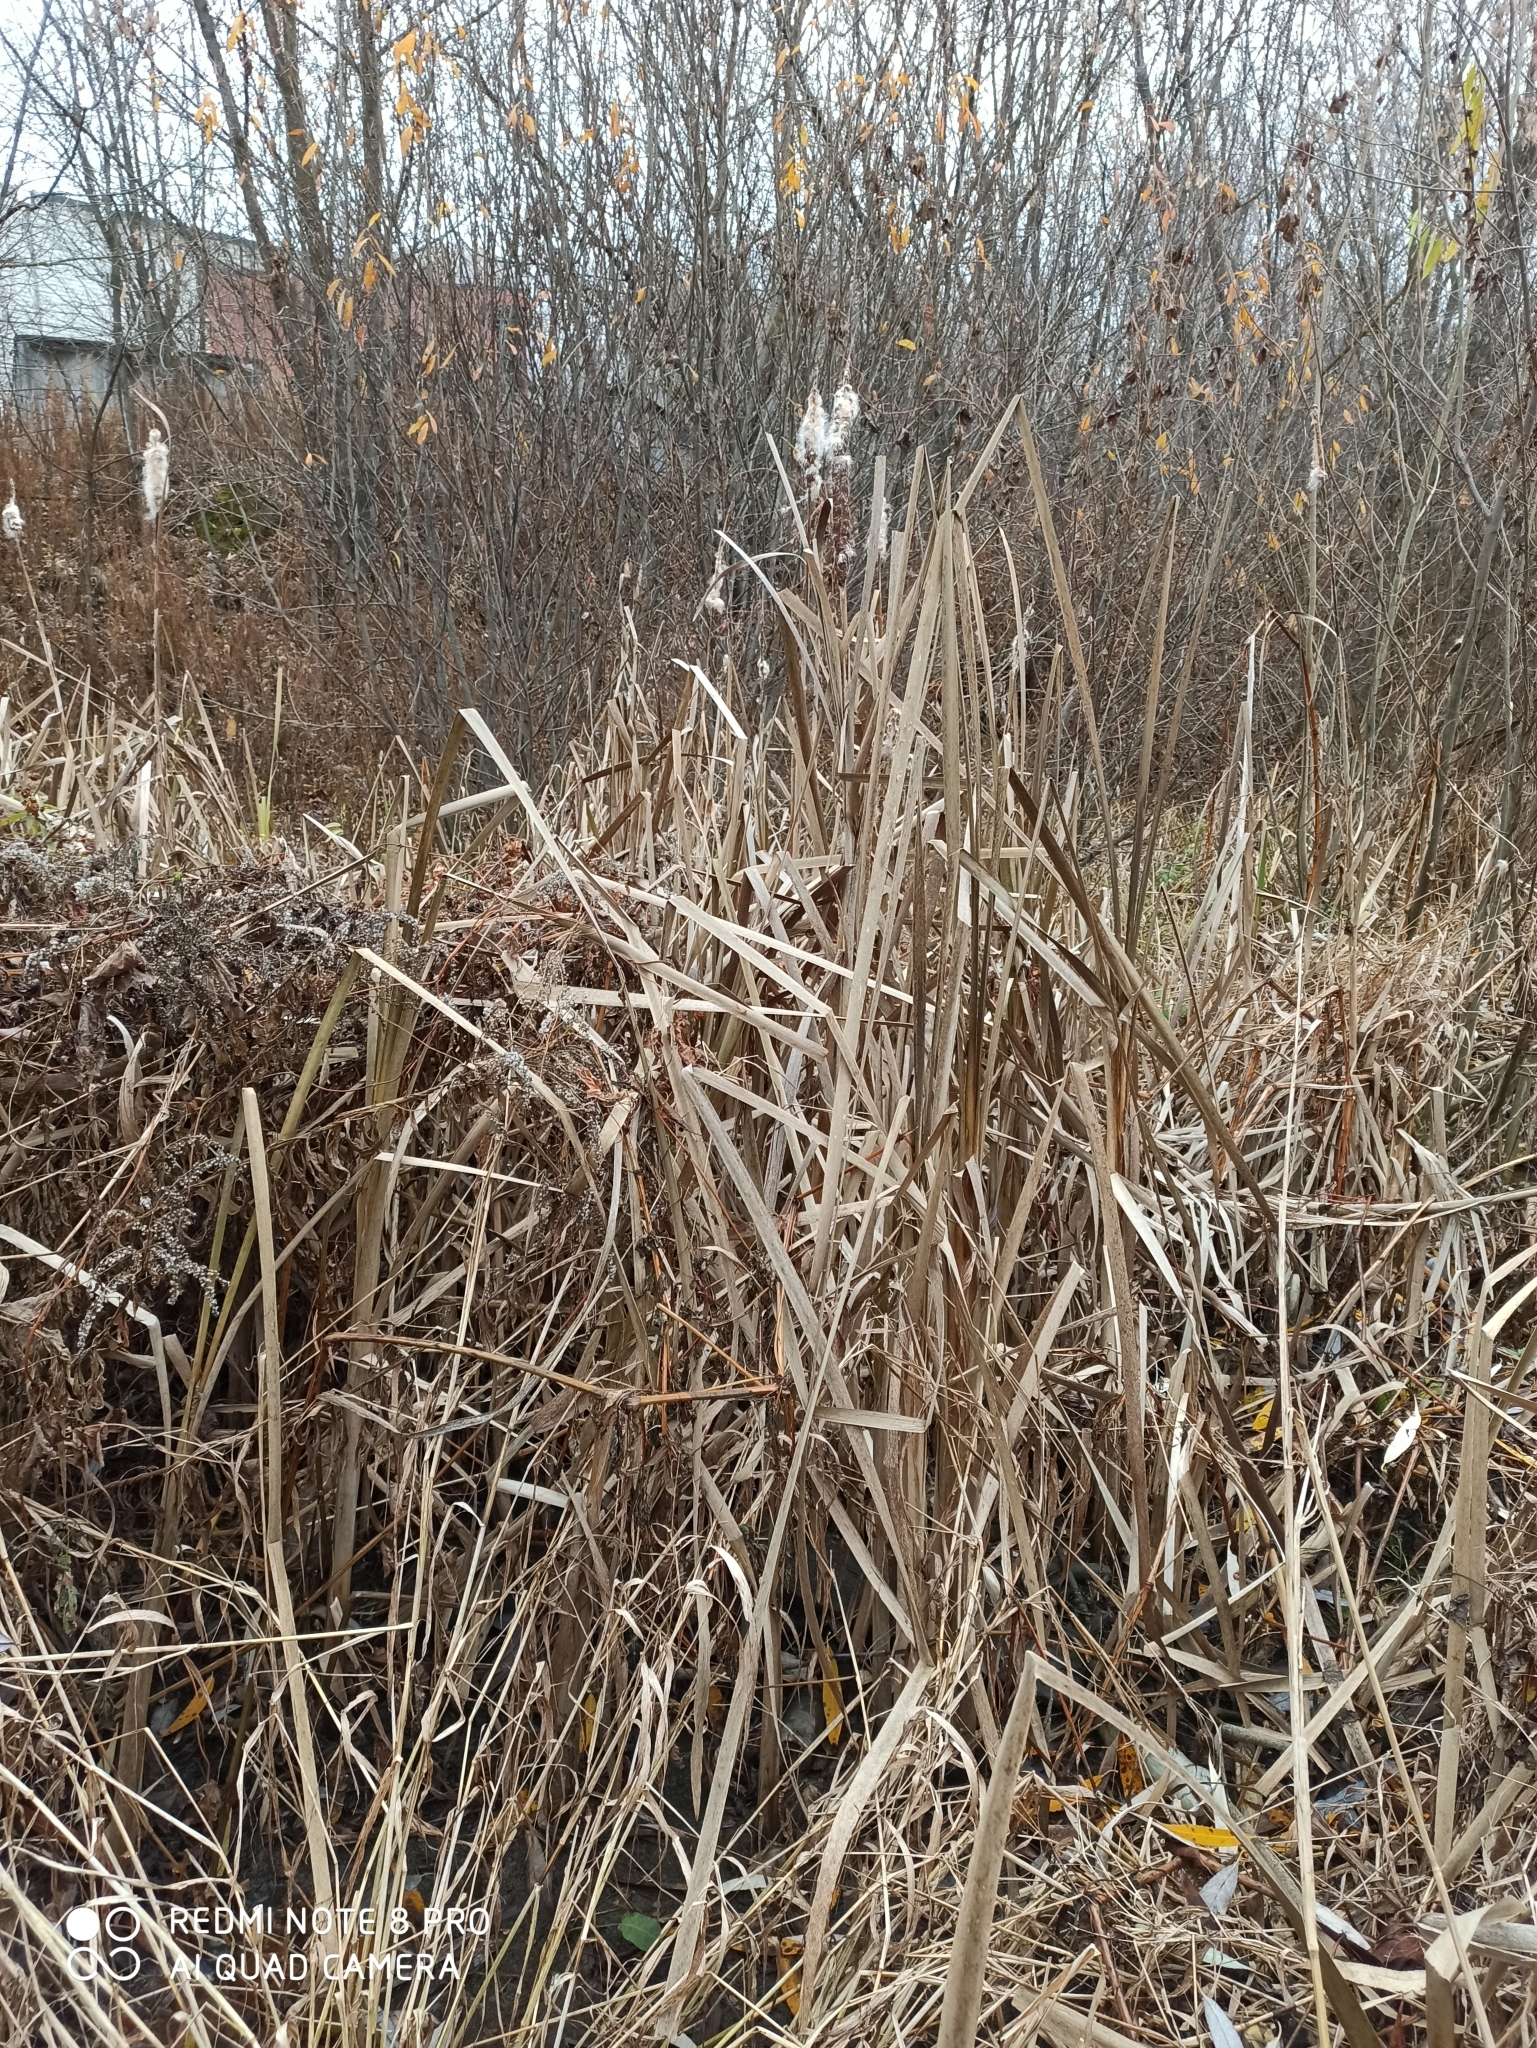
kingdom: Plantae
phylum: Tracheophyta
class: Liliopsida
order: Poales
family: Typhaceae
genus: Typha
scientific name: Typha latifolia
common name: Broadleaf cattail
